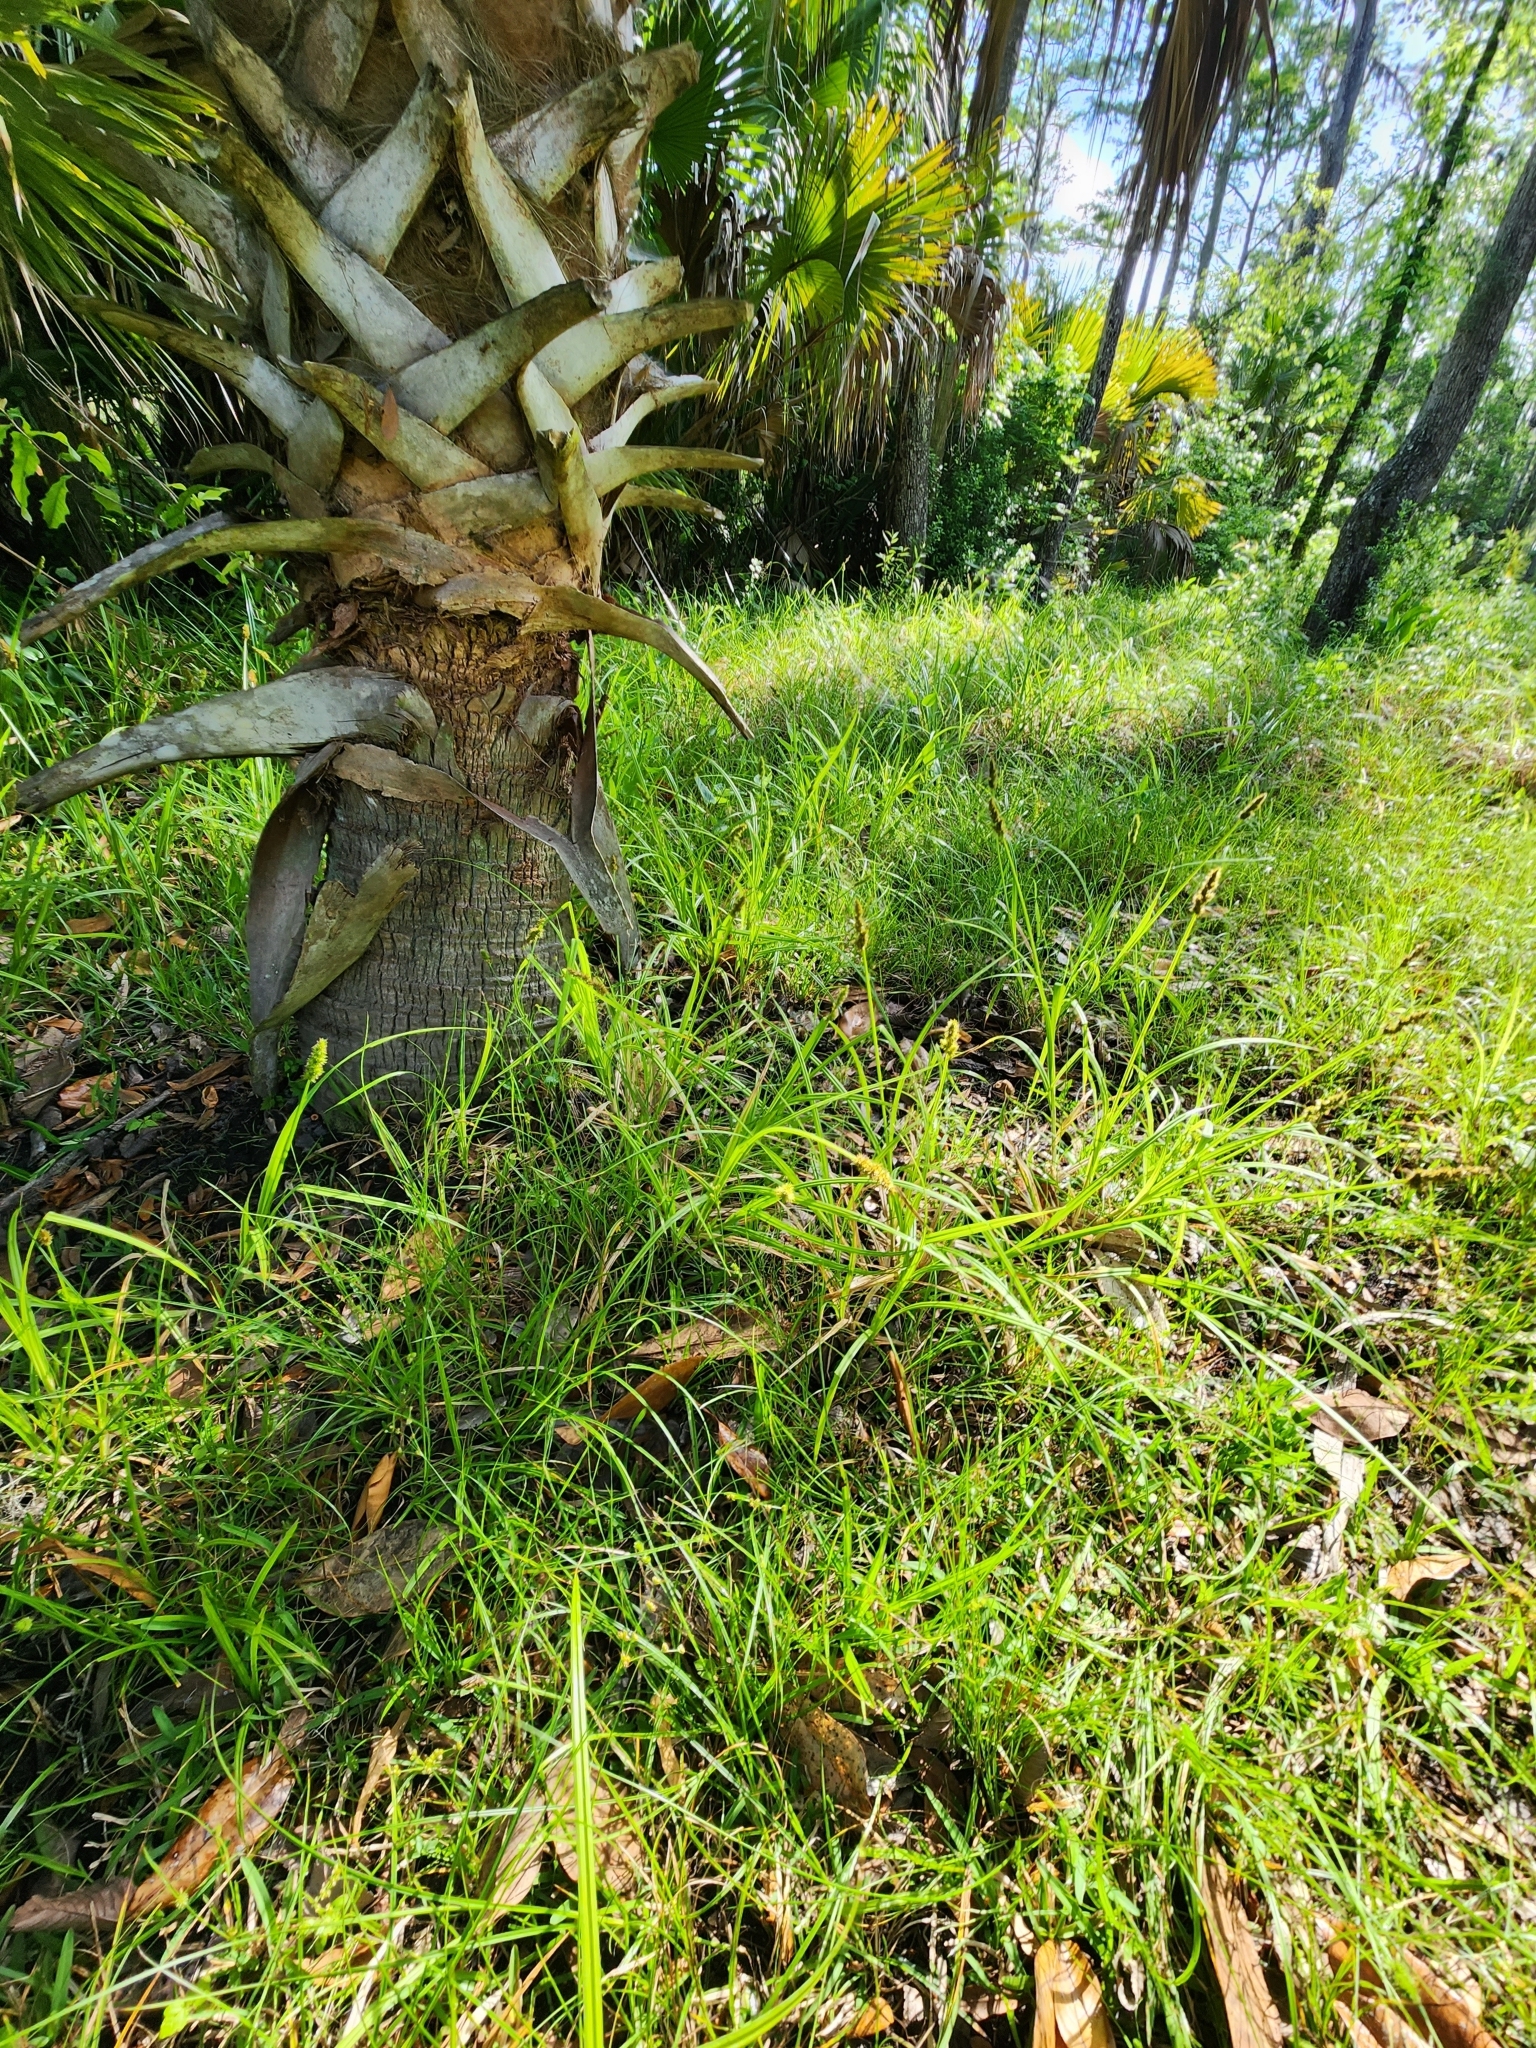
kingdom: Plantae
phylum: Tracheophyta
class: Liliopsida
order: Poales
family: Cyperaceae
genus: Carex
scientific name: Carex stipata
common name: Awl-fruited sedge
